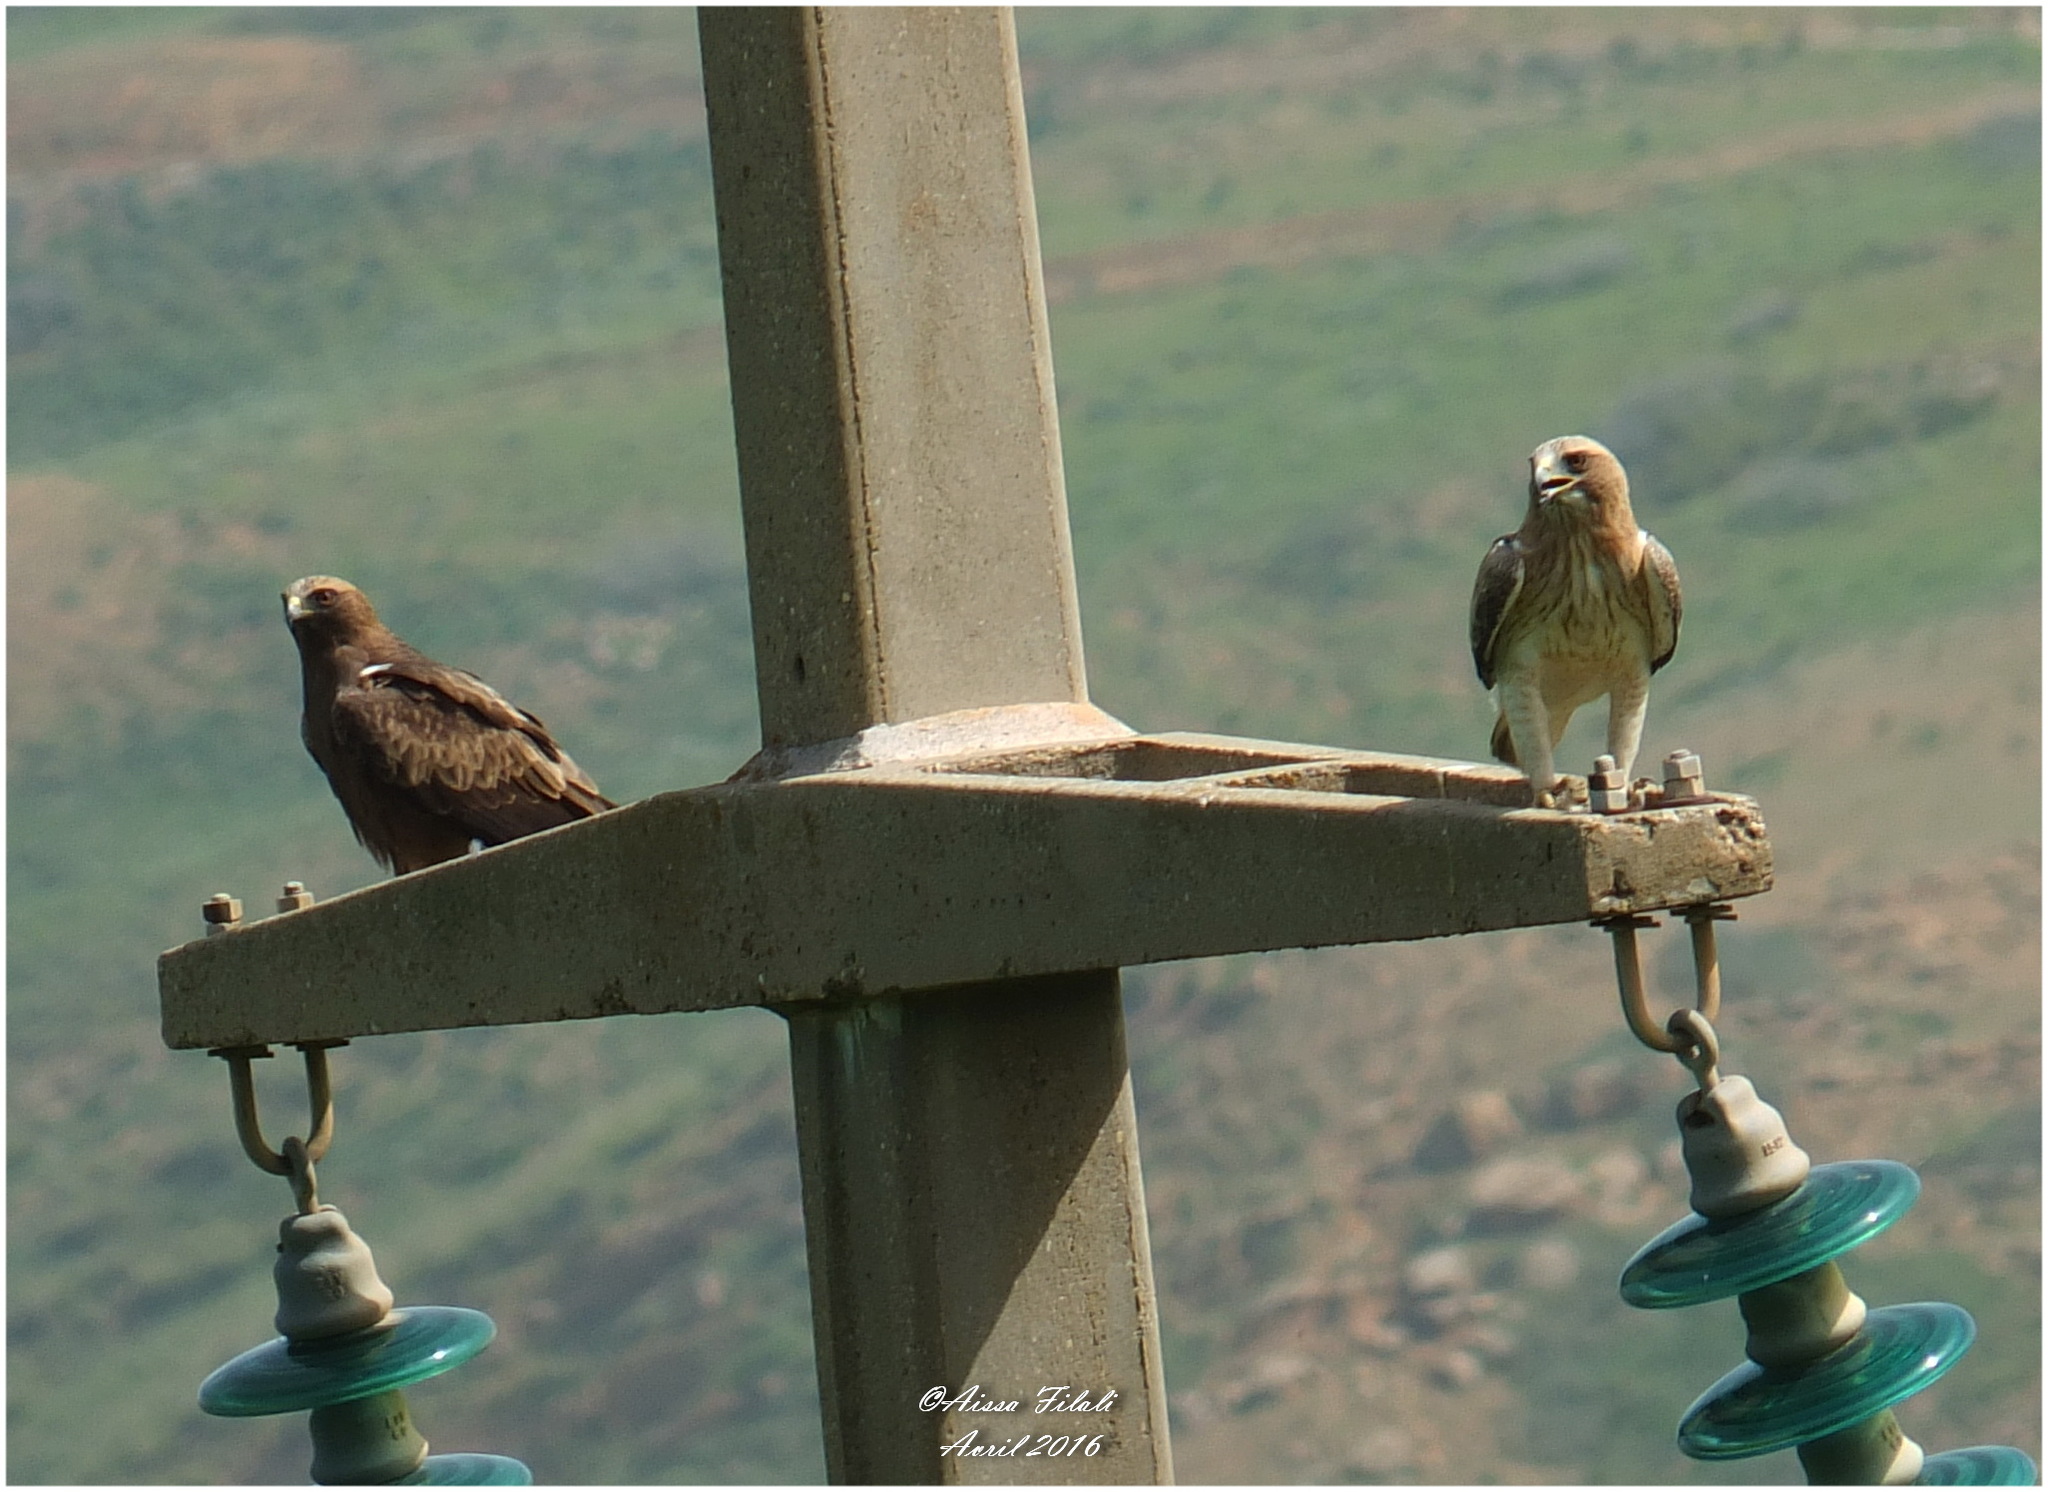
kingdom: Animalia
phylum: Chordata
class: Aves
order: Accipitriformes
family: Accipitridae
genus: Hieraaetus
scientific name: Hieraaetus pennatus
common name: Booted eagle
